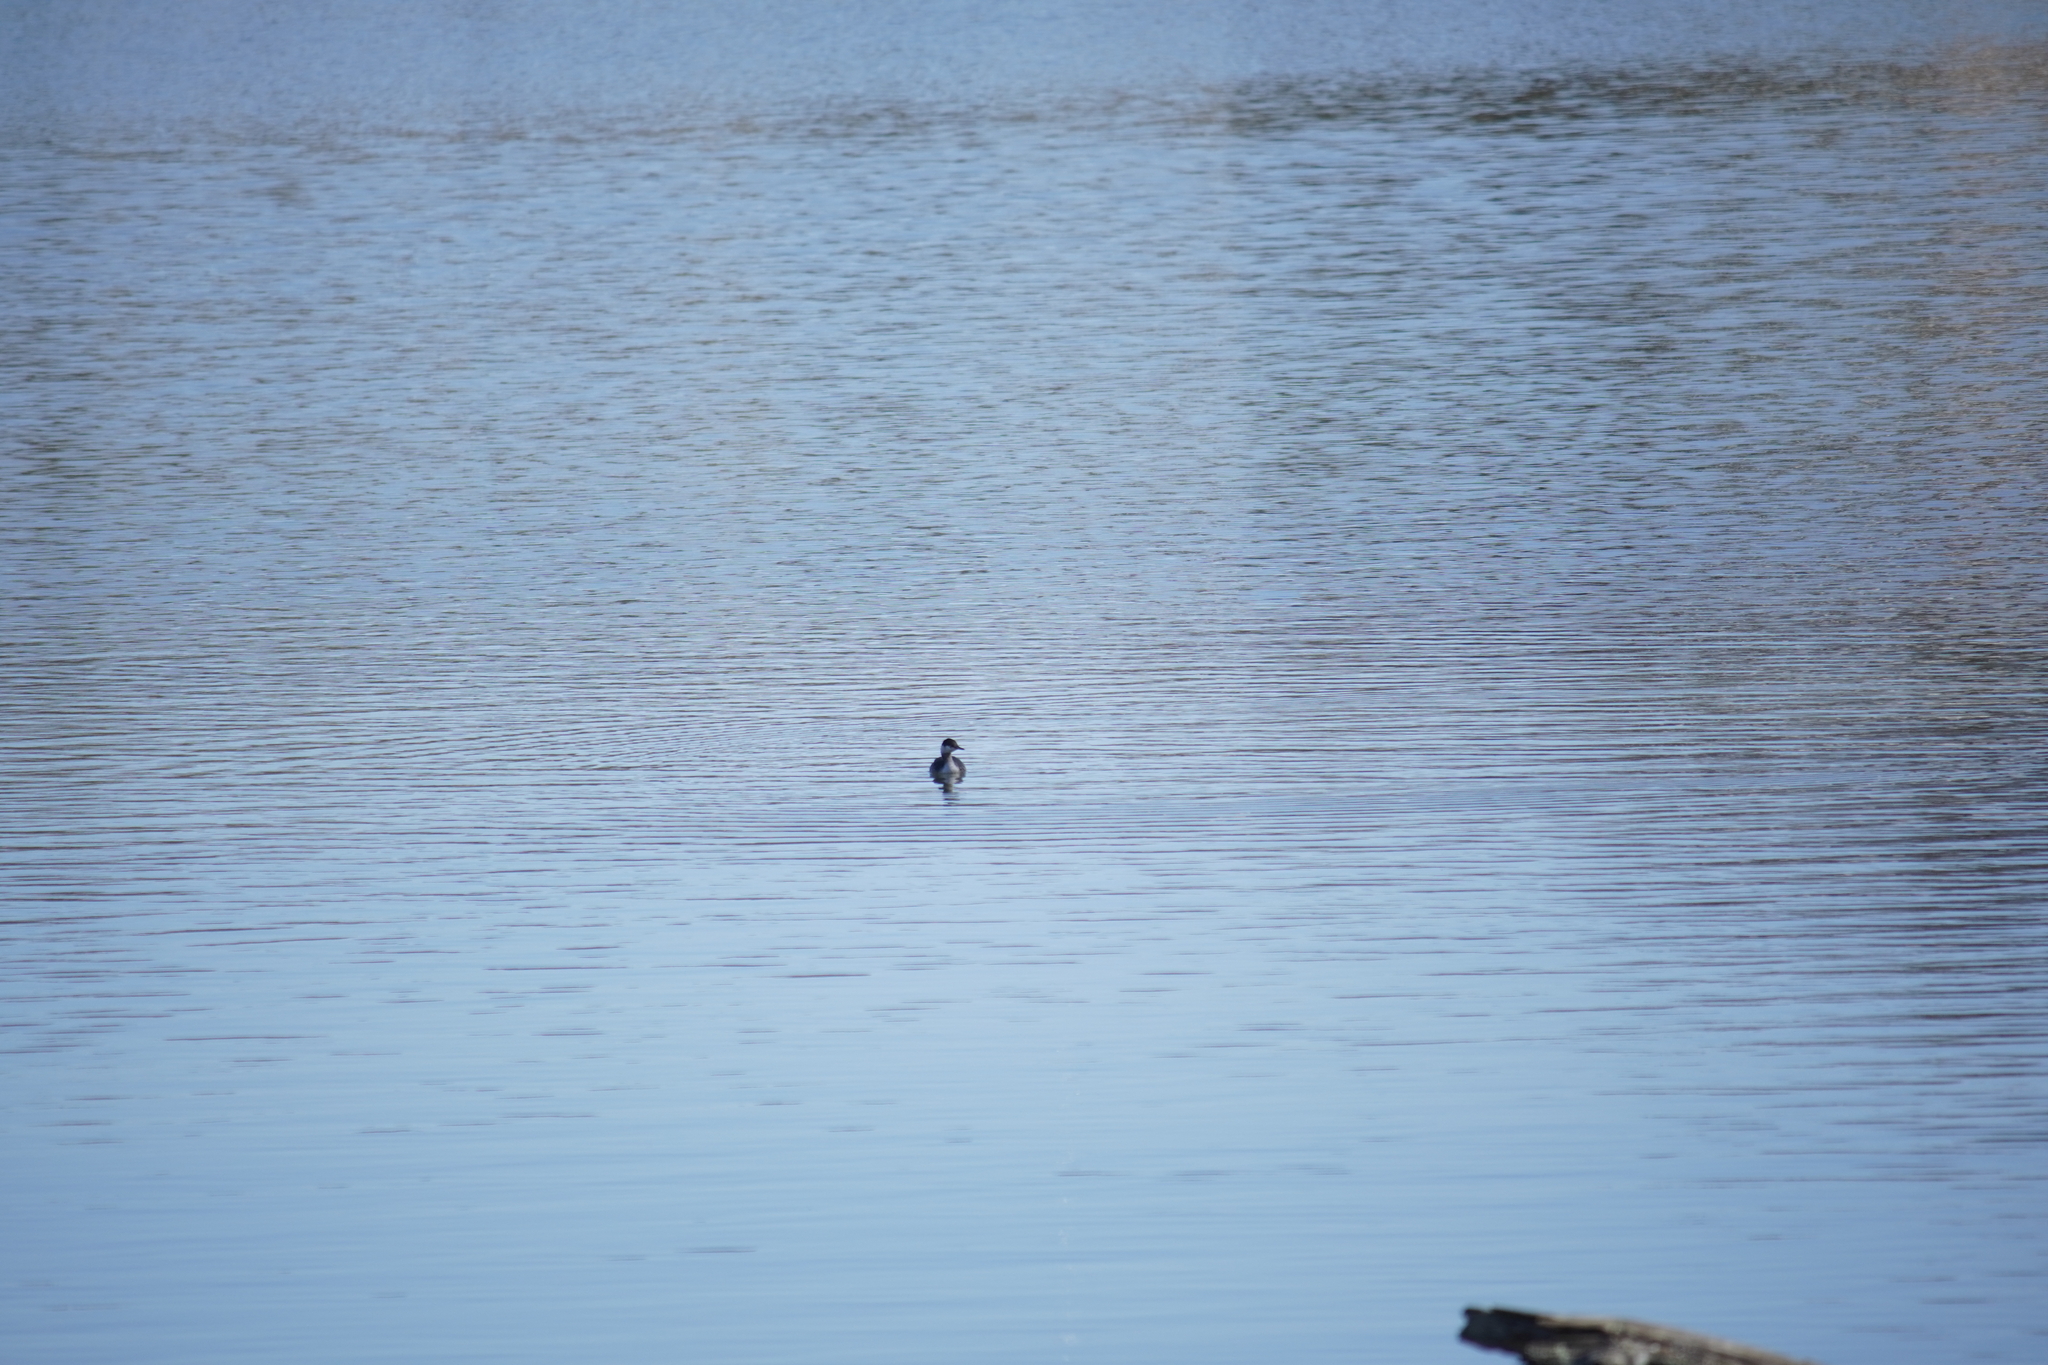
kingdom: Animalia
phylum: Chordata
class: Aves
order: Podicipediformes
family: Podicipedidae
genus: Podiceps
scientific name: Podiceps auritus
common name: Horned grebe
